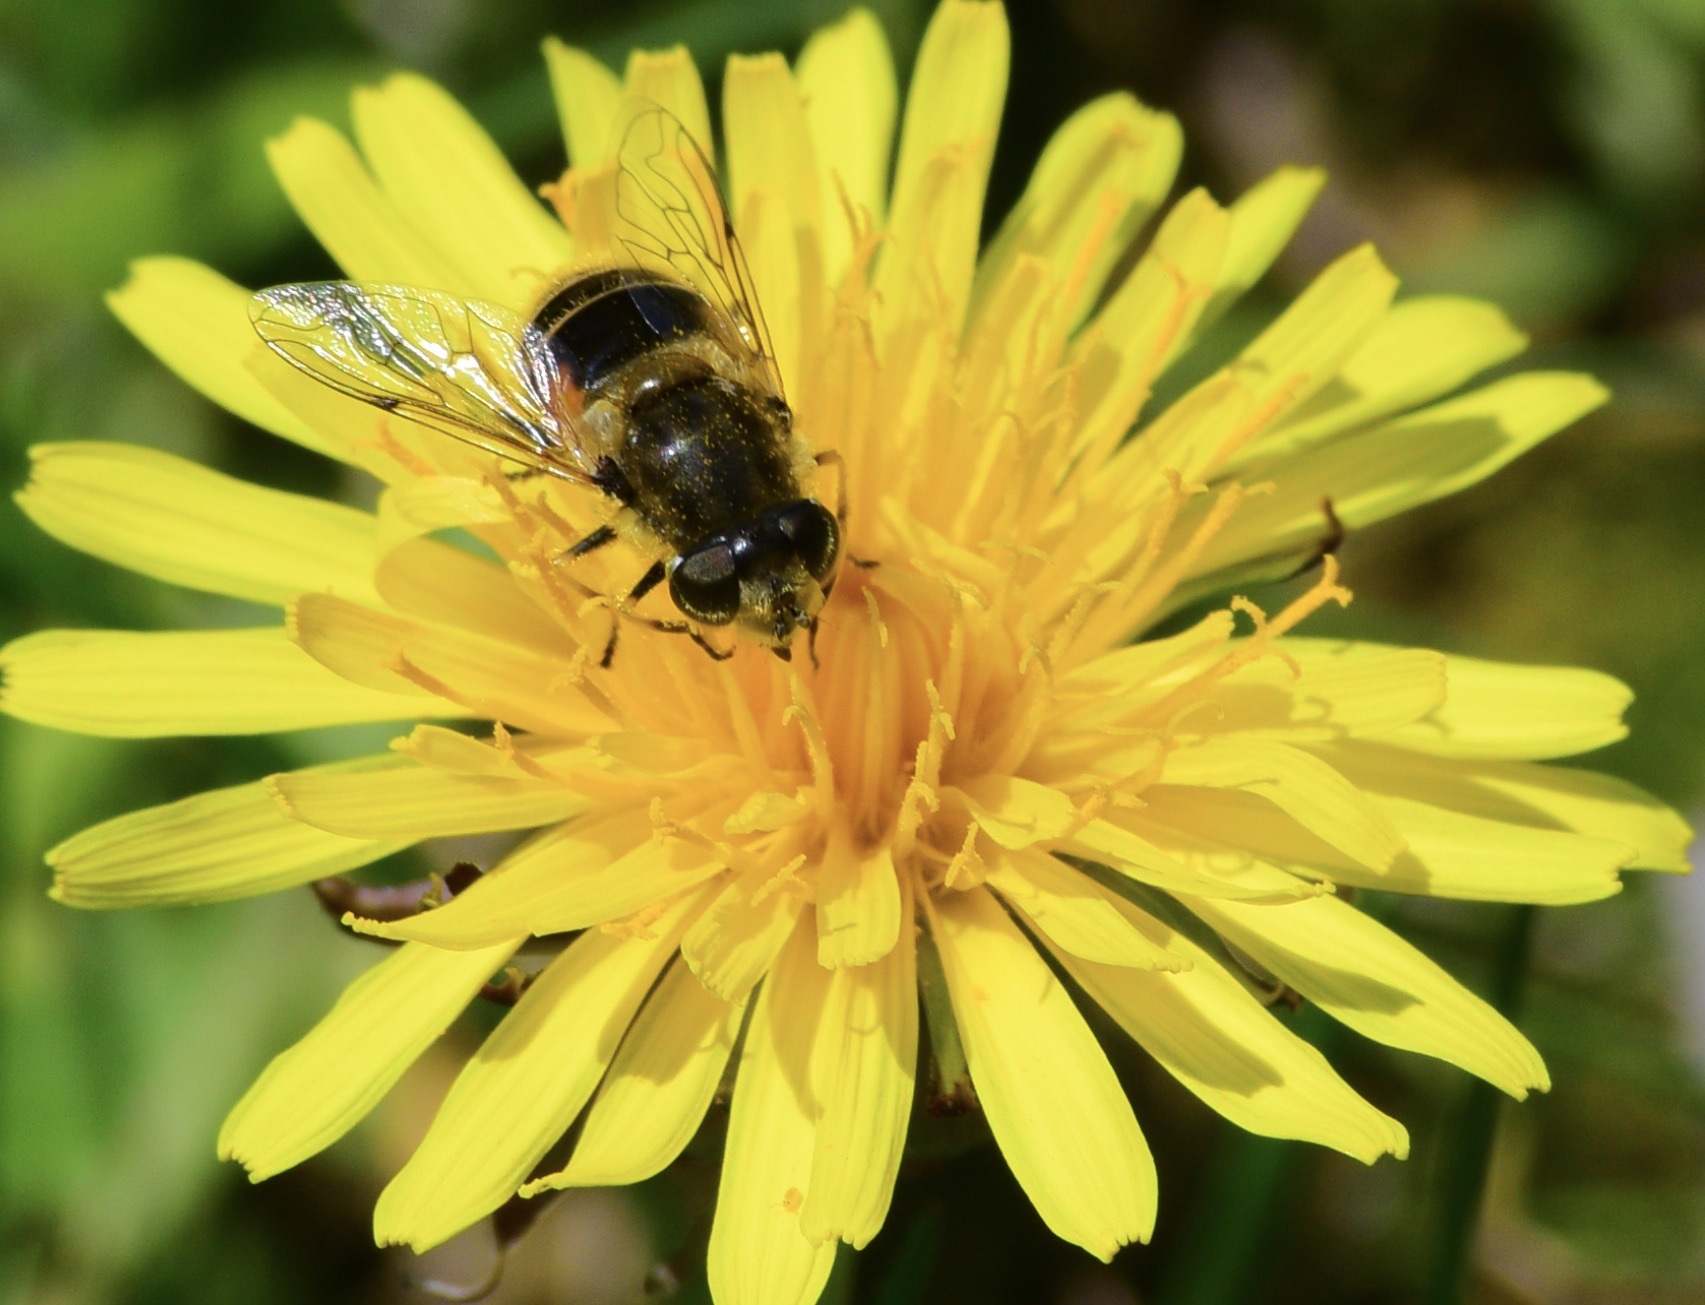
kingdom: Animalia
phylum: Arthropoda
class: Insecta
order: Diptera
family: Syrphidae
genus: Eristalis
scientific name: Eristalis arbustorum
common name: Hover fly
